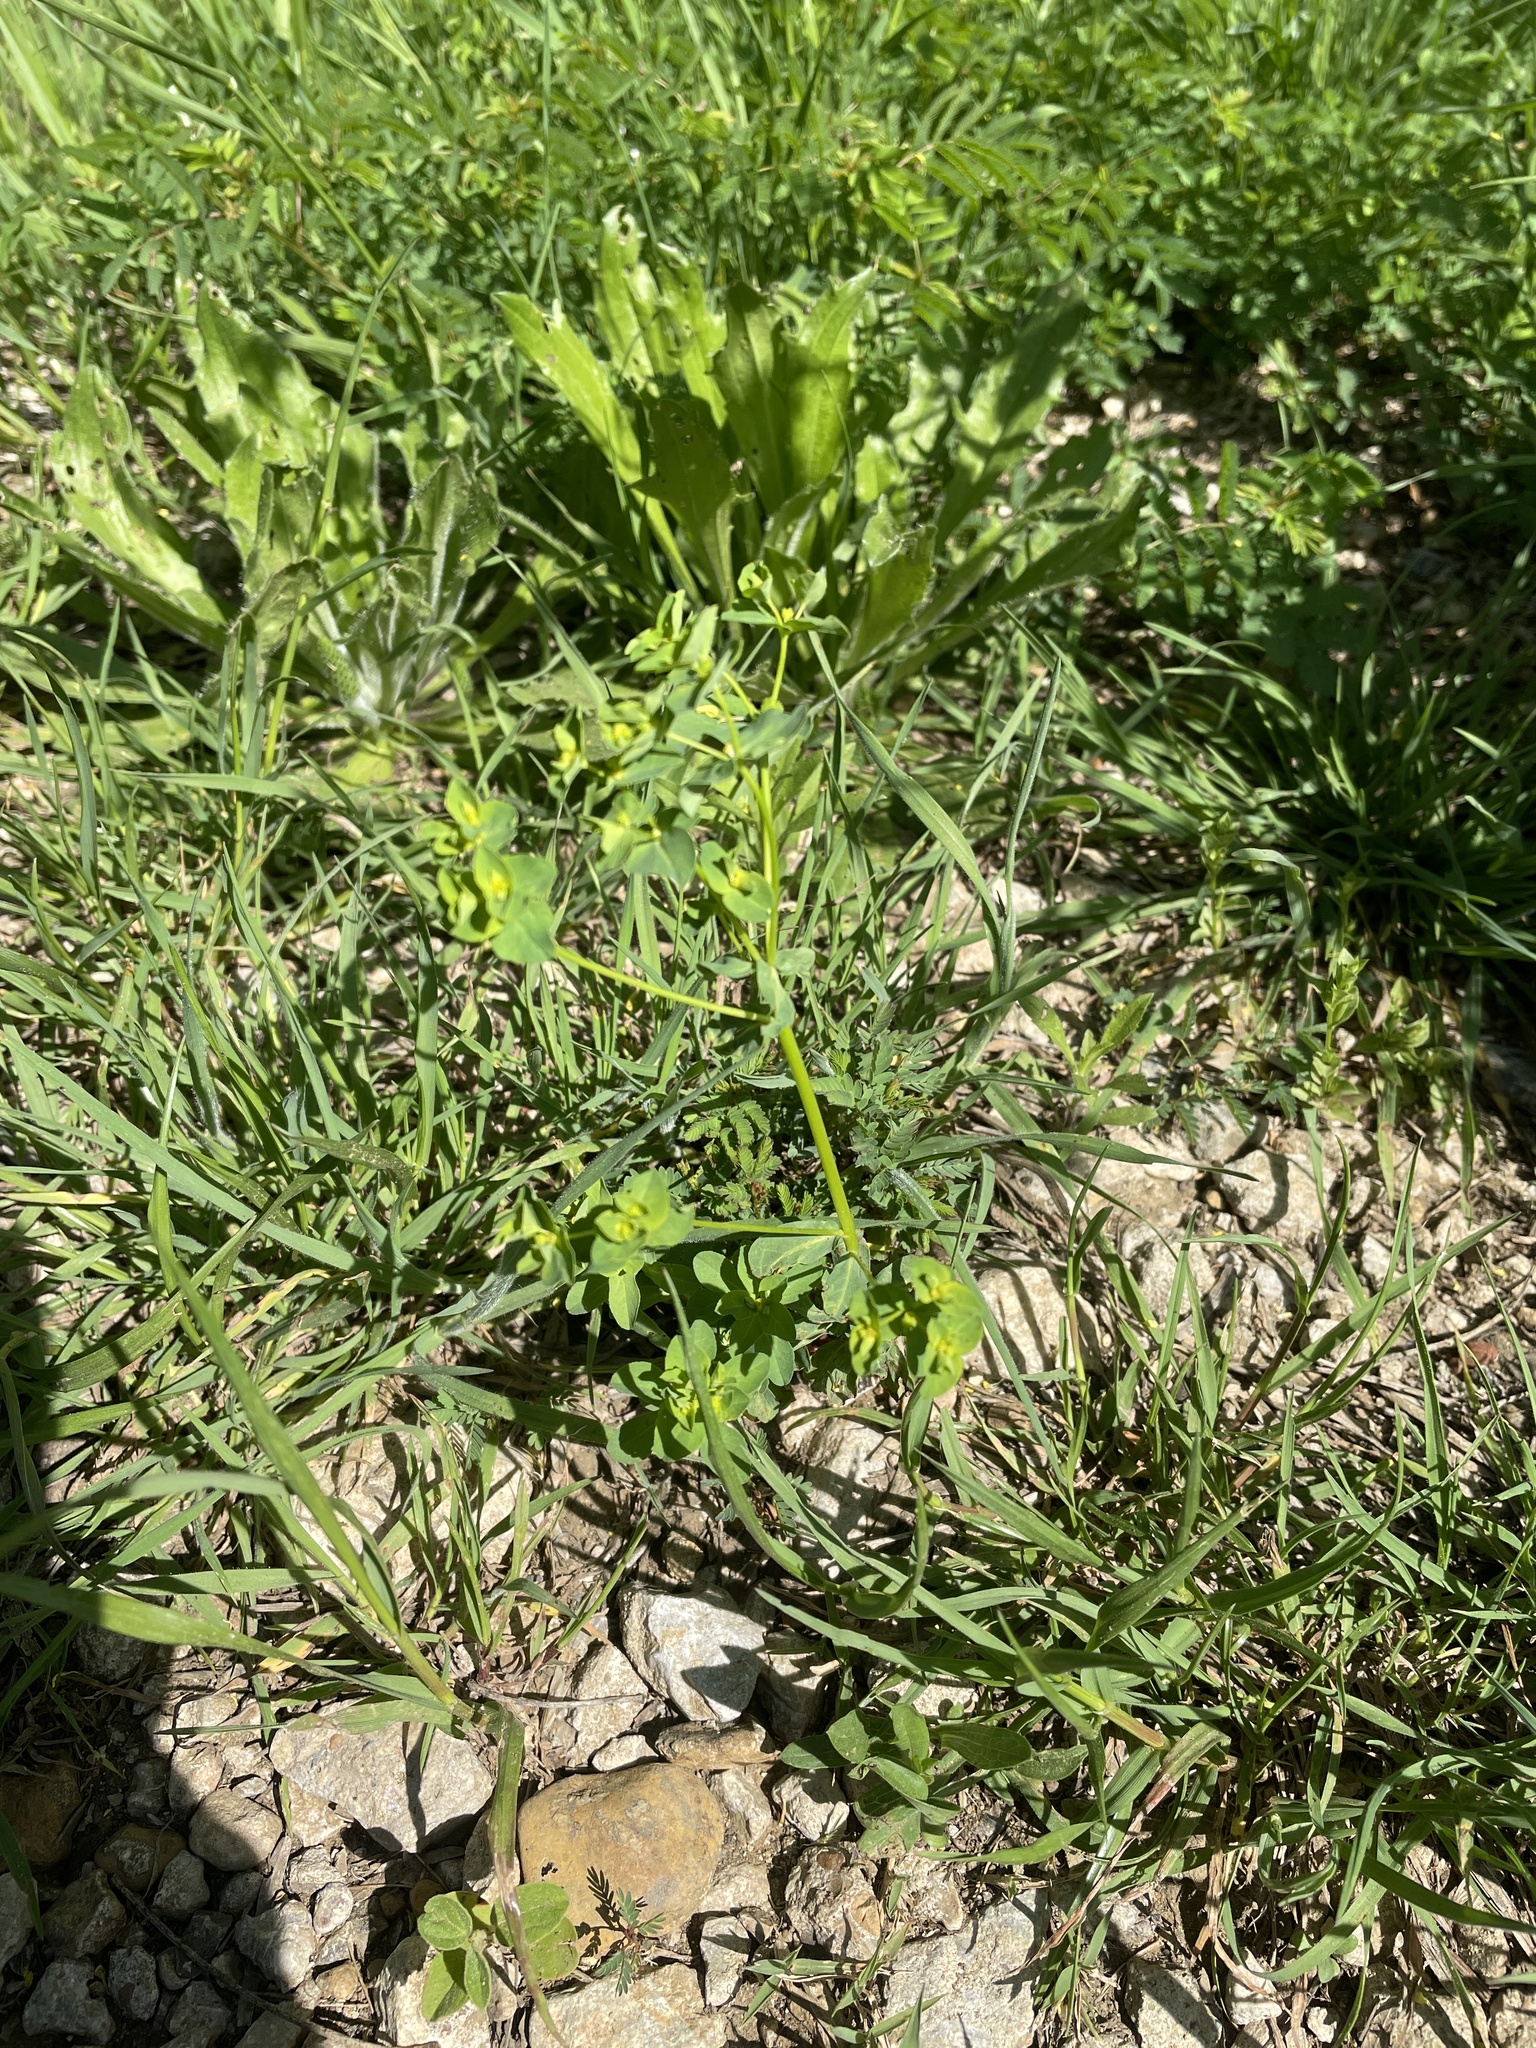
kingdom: Plantae
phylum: Tracheophyta
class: Magnoliopsida
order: Malpighiales
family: Euphorbiaceae
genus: Euphorbia
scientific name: Euphorbia spathulata
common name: Blunt spurge
